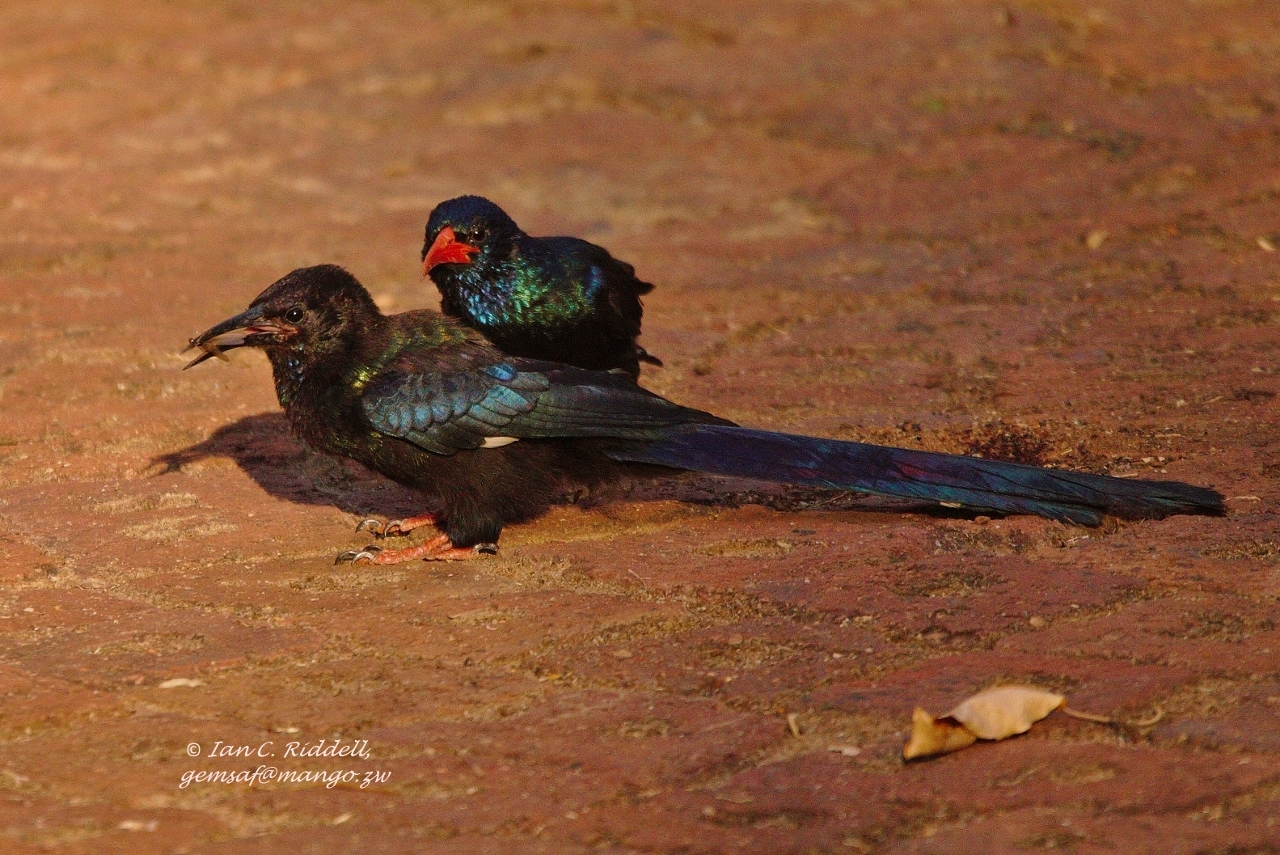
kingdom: Animalia
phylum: Chordata
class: Aves
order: Bucerotiformes
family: Phoeniculidae
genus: Phoeniculus
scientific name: Phoeniculus purpureus
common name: Green woodhoopoe
